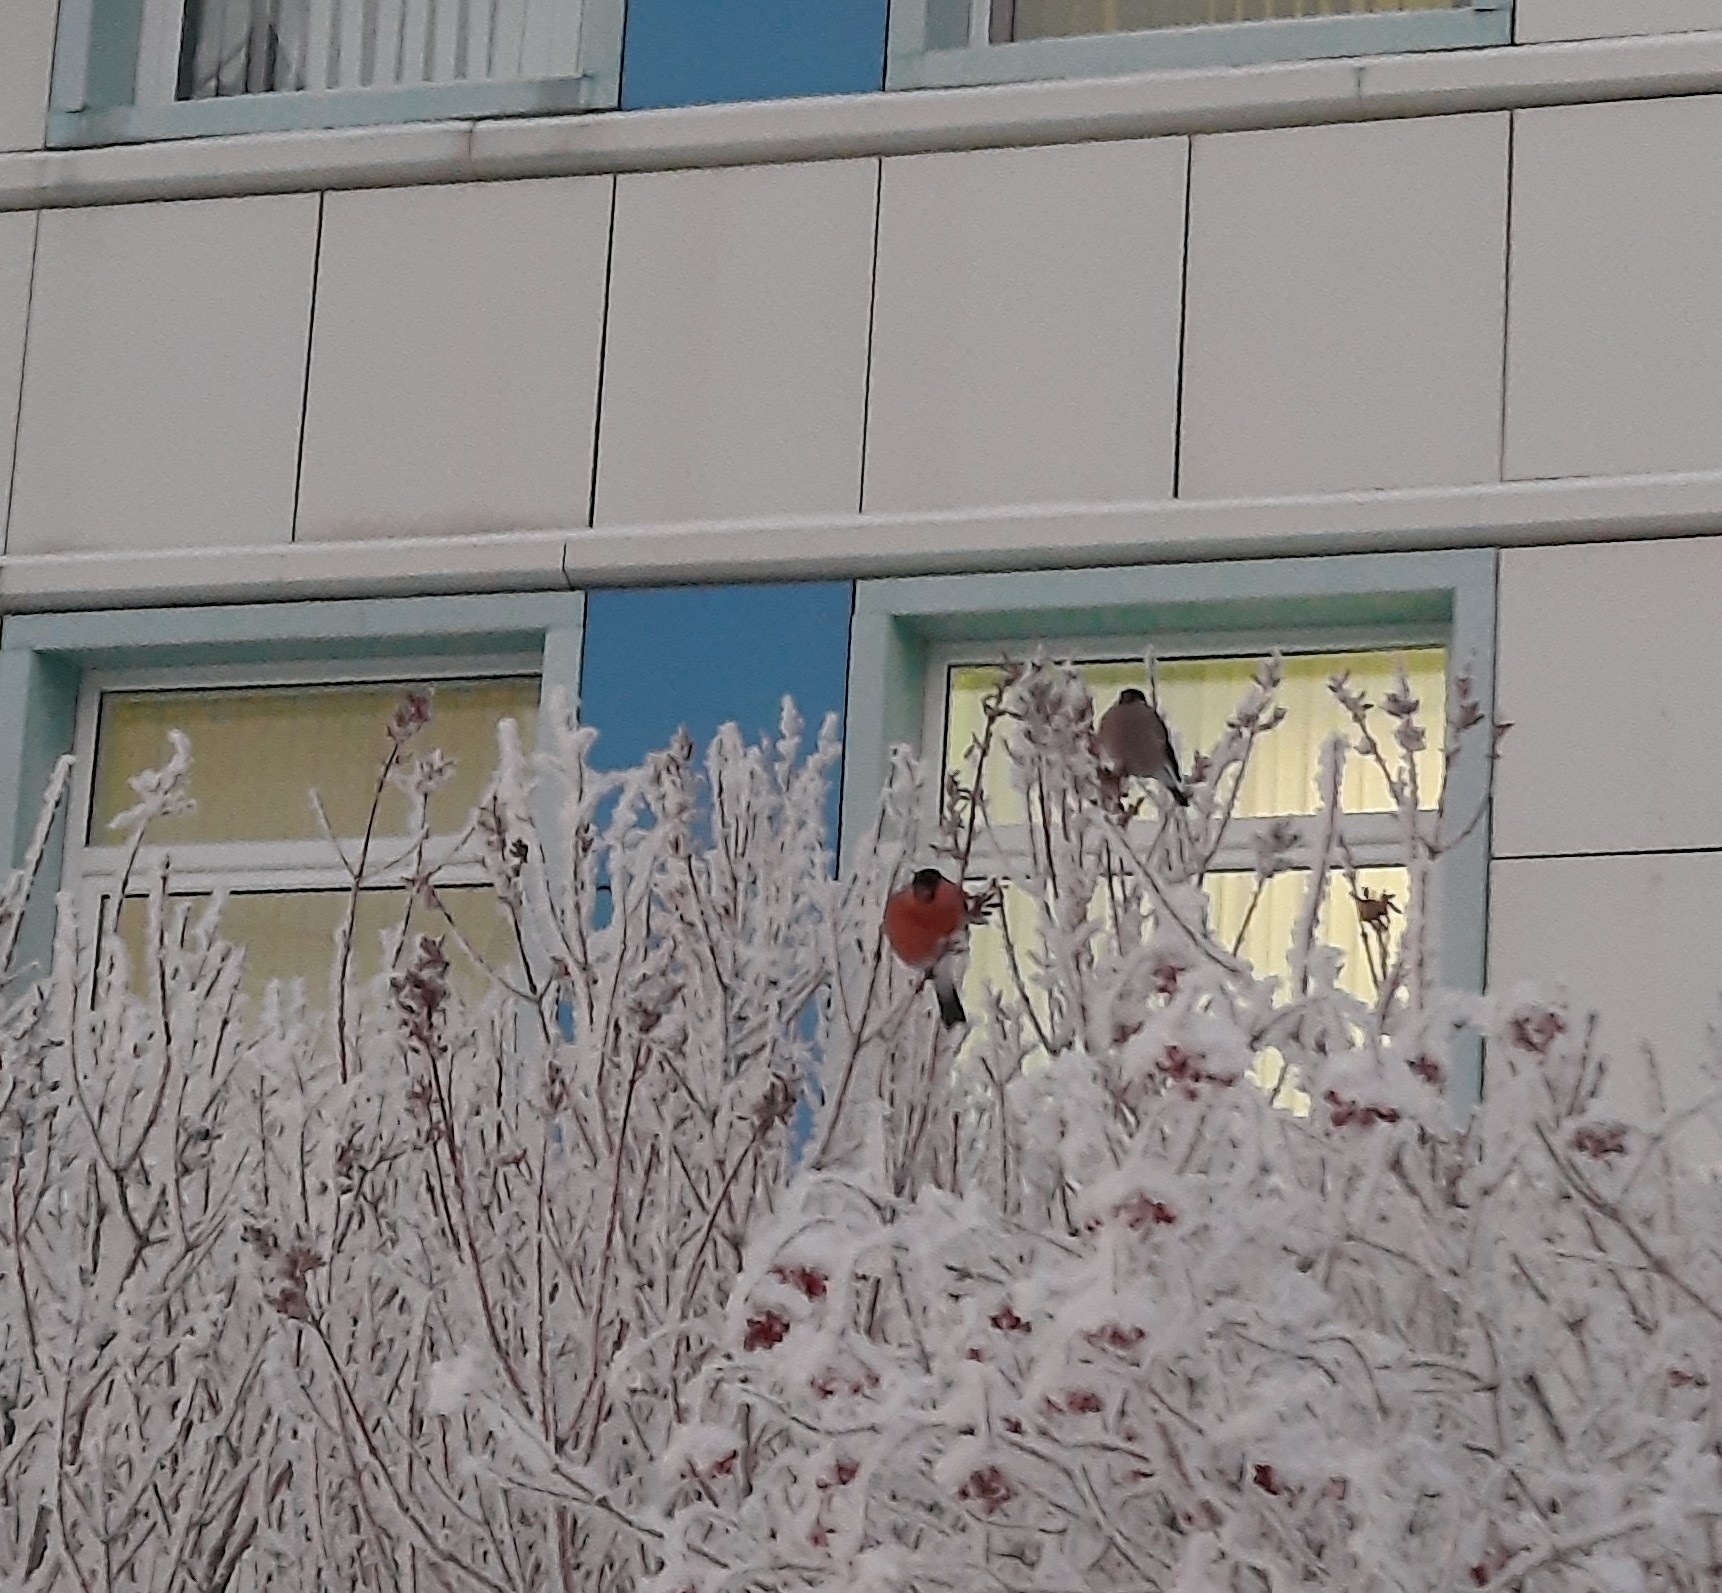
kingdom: Animalia
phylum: Chordata
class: Aves
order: Passeriformes
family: Fringillidae
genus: Pyrrhula
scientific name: Pyrrhula pyrrhula
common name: Eurasian bullfinch
